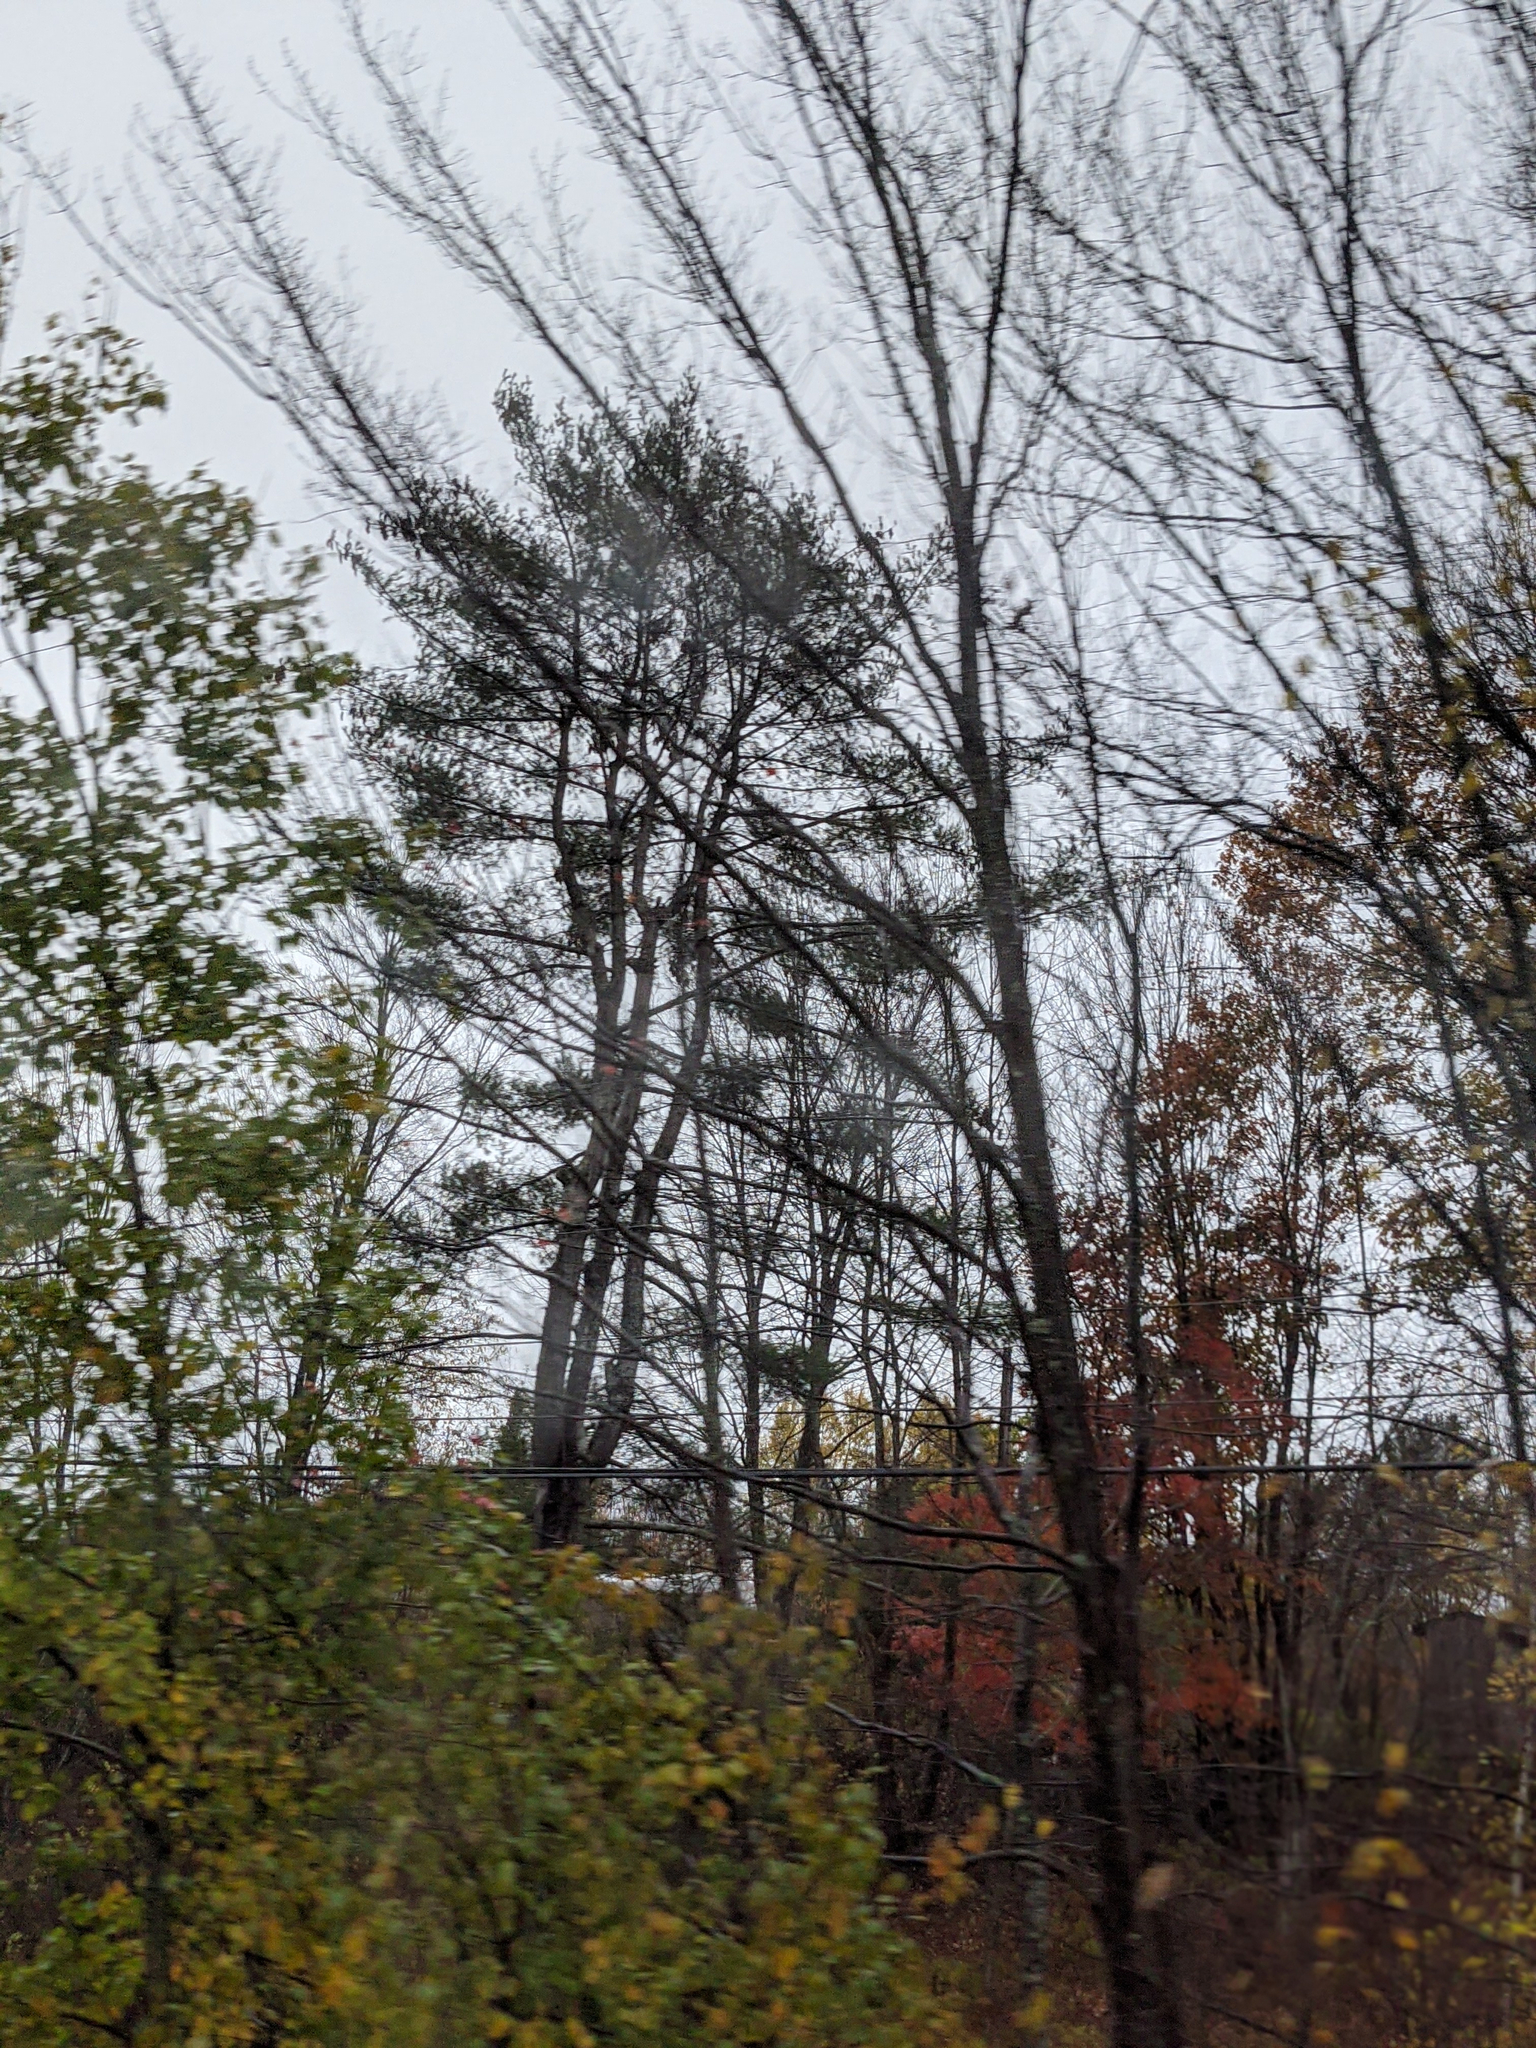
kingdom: Plantae
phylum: Tracheophyta
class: Pinopsida
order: Pinales
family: Pinaceae
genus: Pinus
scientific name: Pinus strobus
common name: Weymouth pine
